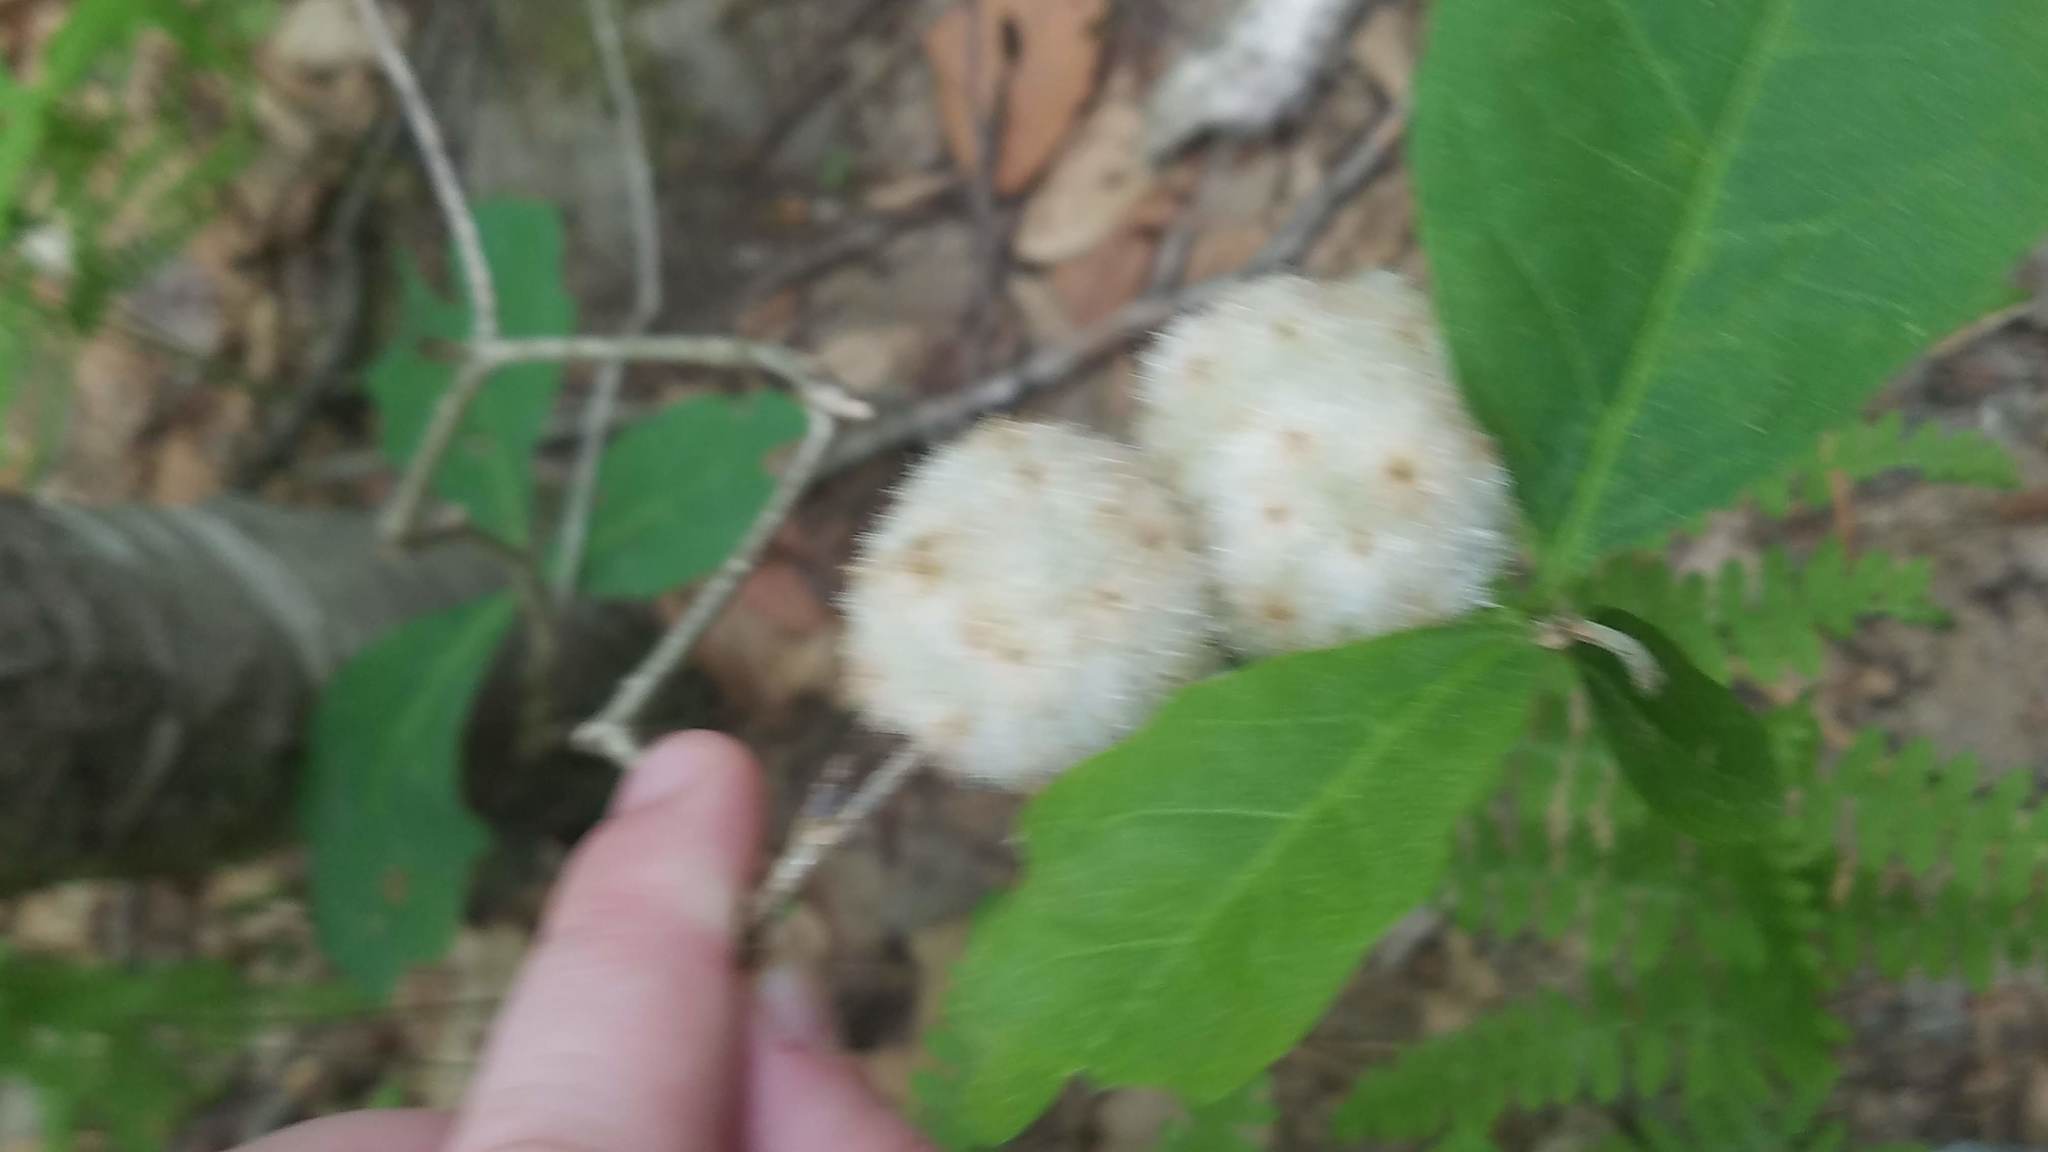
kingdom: Animalia
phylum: Arthropoda
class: Insecta
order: Hymenoptera
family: Cynipidae
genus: Callirhytis
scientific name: Callirhytis
